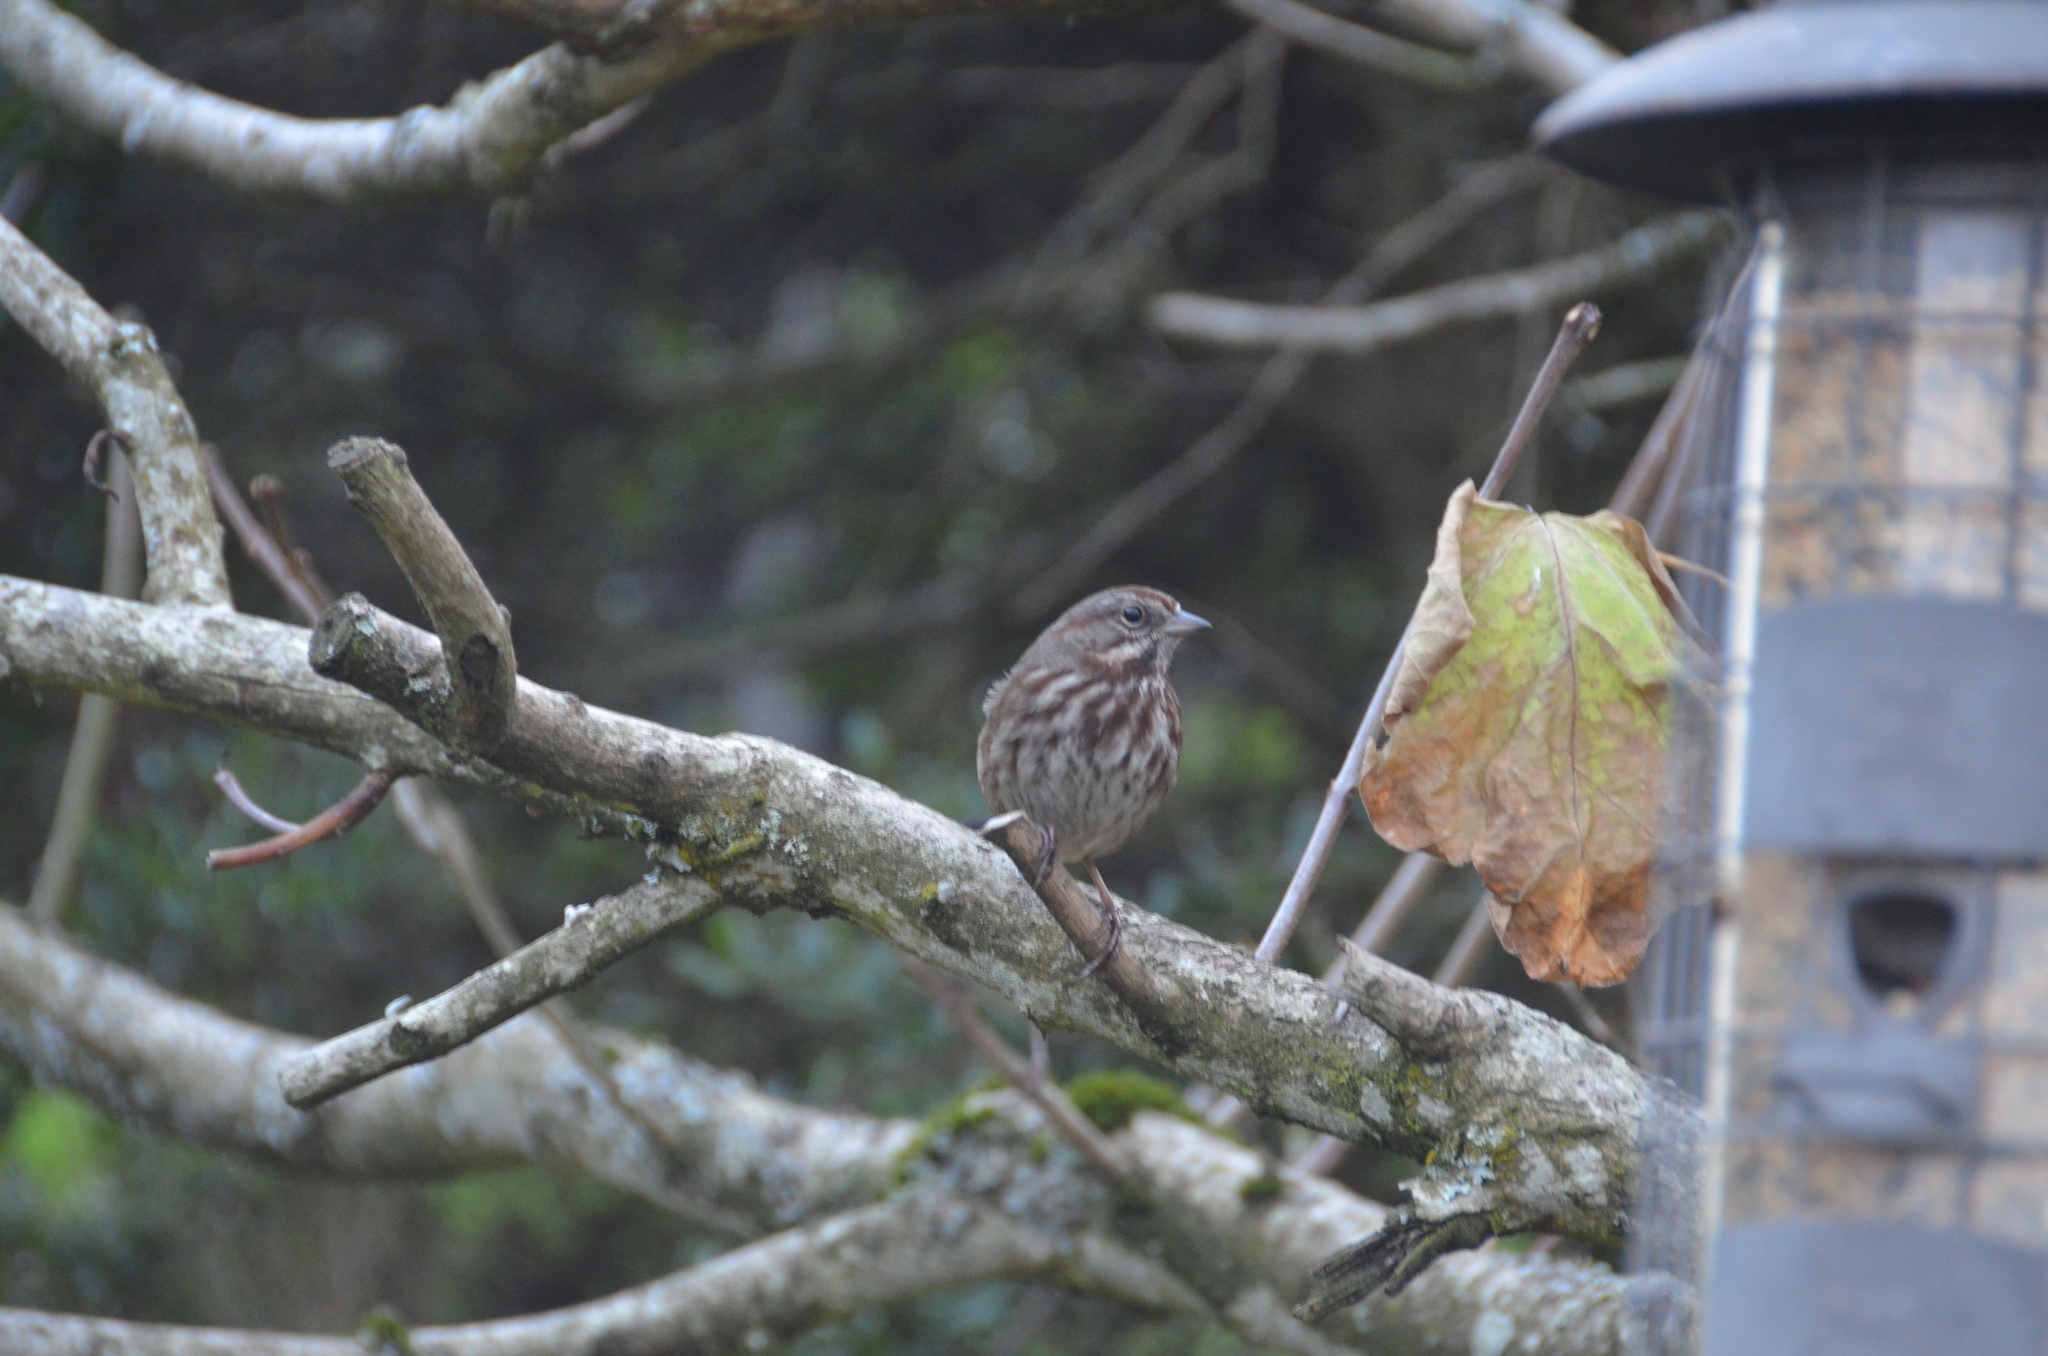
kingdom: Animalia
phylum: Chordata
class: Aves
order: Passeriformes
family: Passerellidae
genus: Melospiza
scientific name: Melospiza melodia
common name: Song sparrow
